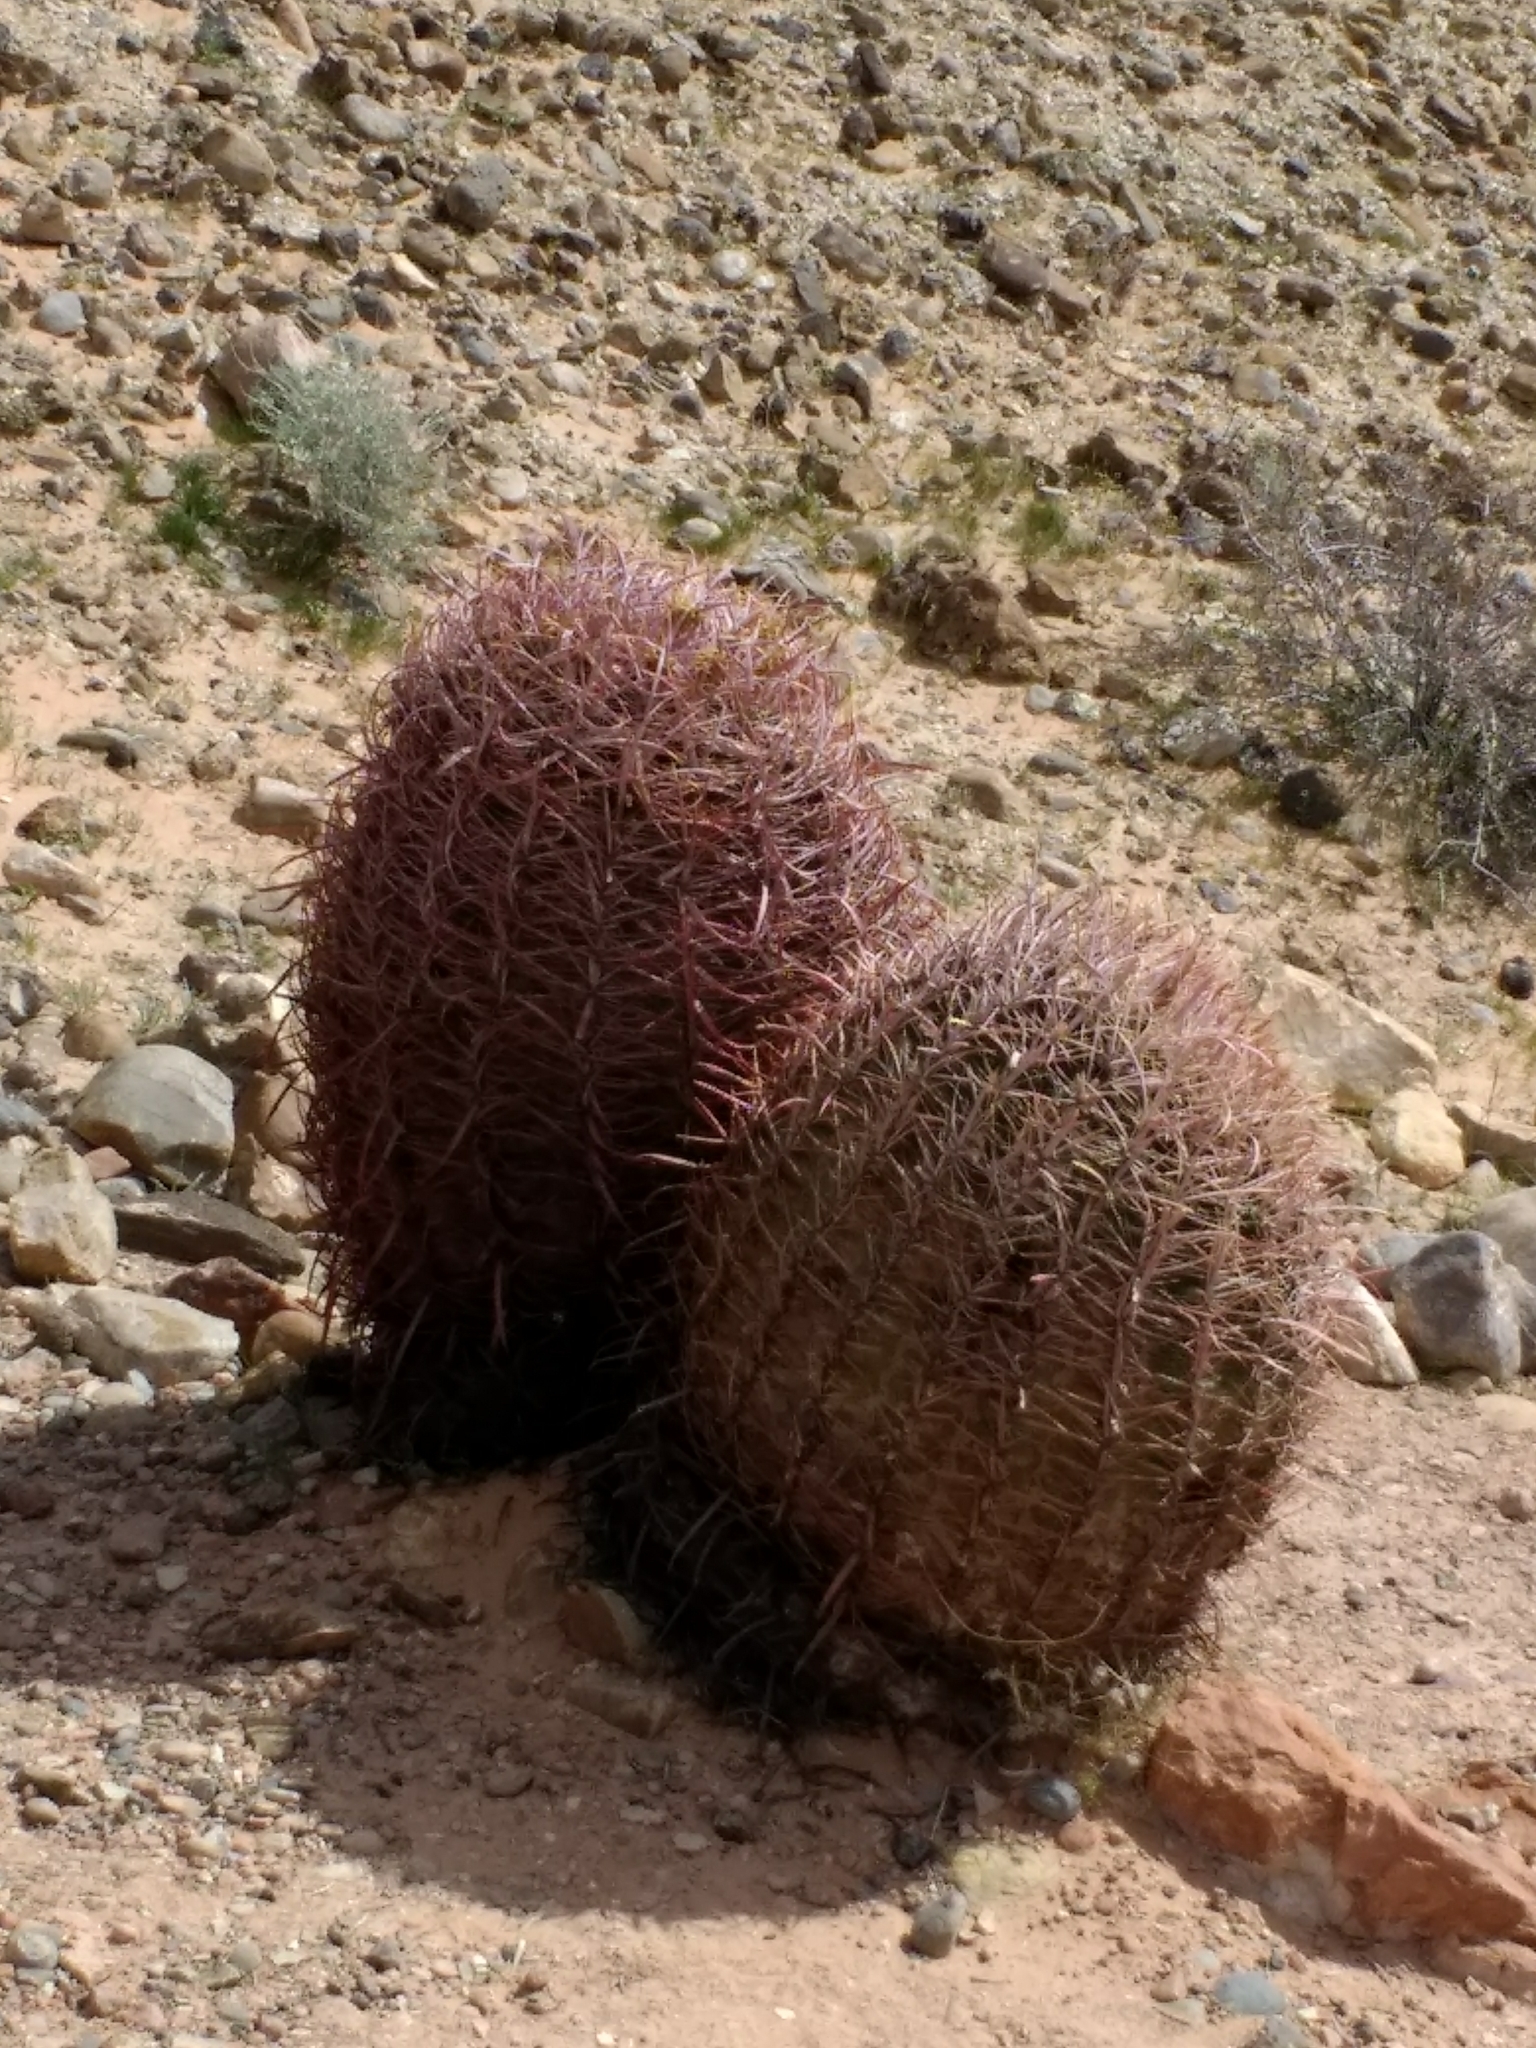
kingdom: Plantae
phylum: Tracheophyta
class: Magnoliopsida
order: Caryophyllales
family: Cactaceae
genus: Ferocactus
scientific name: Ferocactus cylindraceus
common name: California barrel cactus
